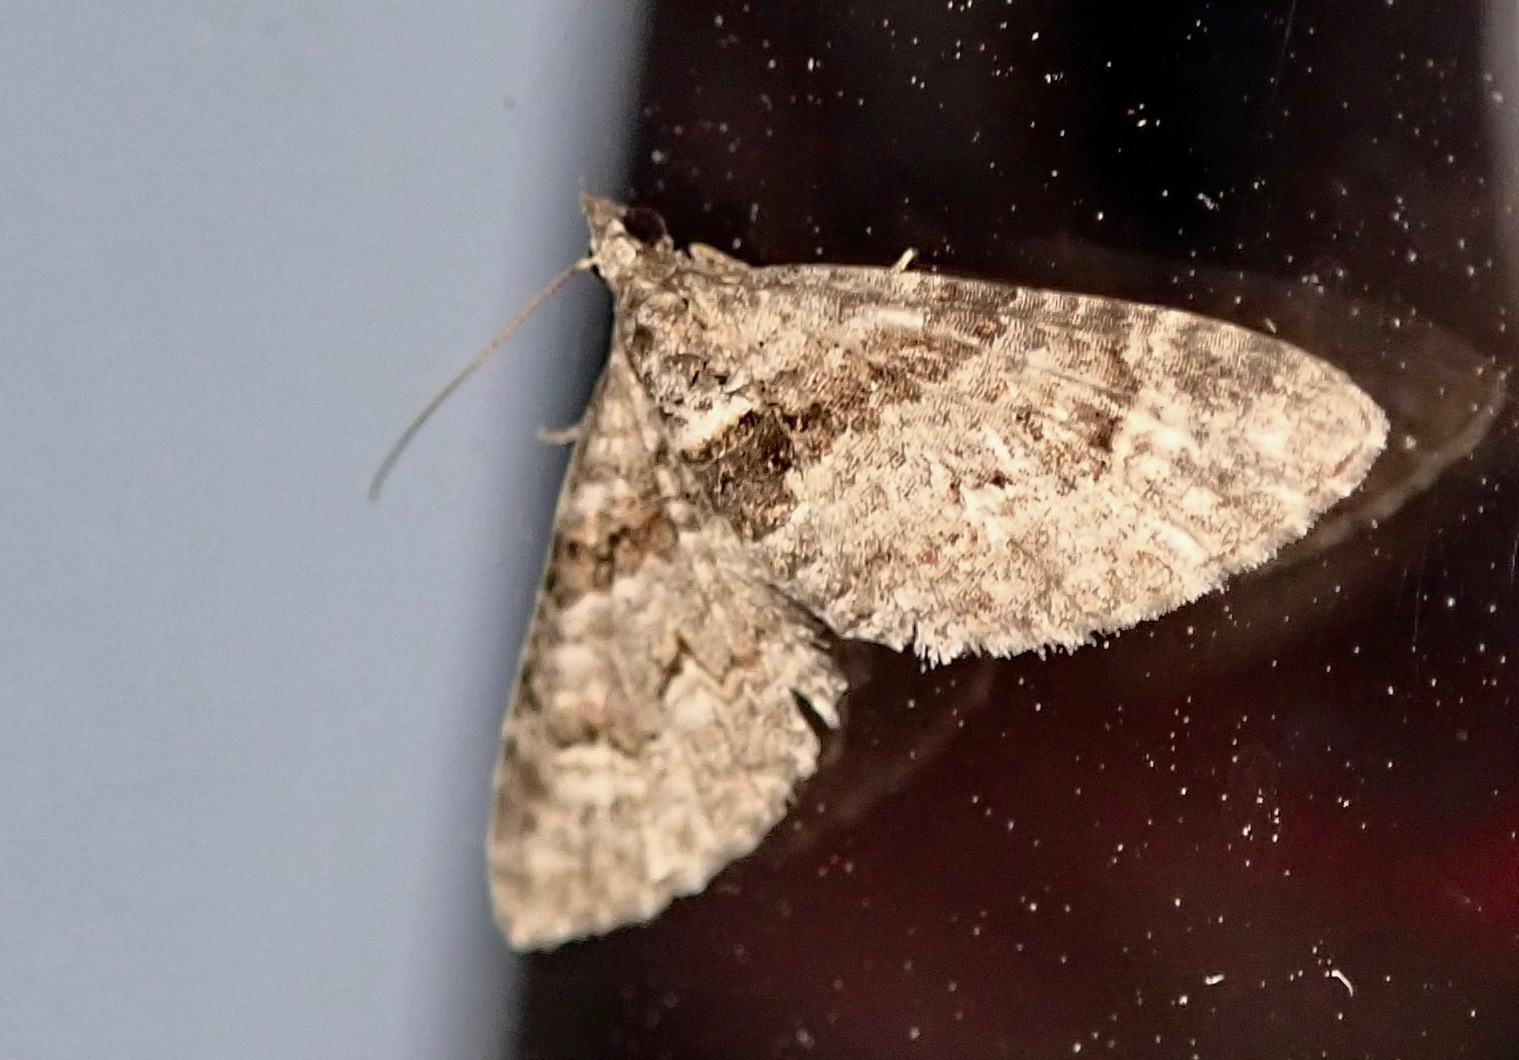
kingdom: Animalia
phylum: Arthropoda
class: Insecta
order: Lepidoptera
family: Geometridae
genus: Phrissogonus
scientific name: Phrissogonus laticostata
